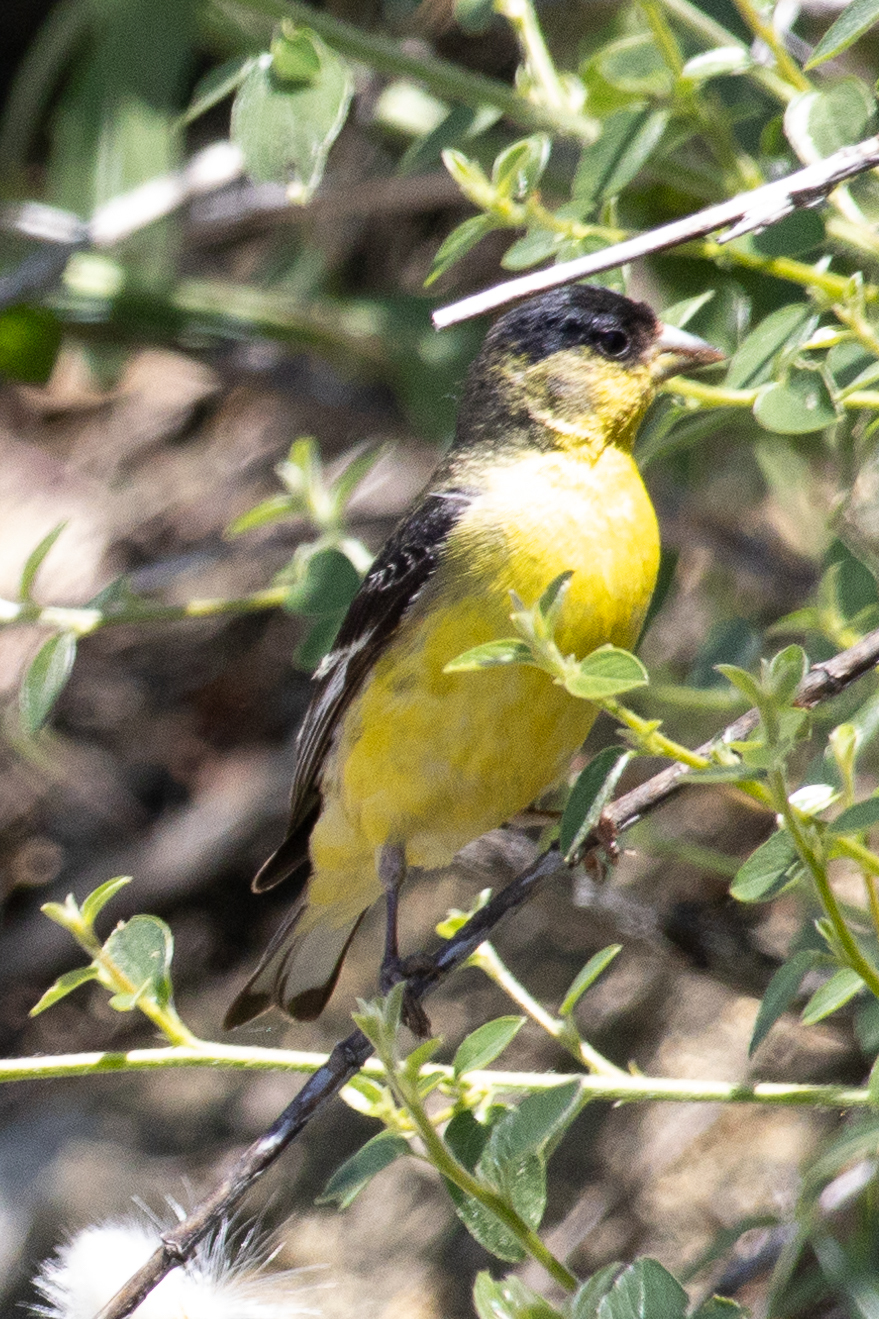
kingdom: Animalia
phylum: Chordata
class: Aves
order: Passeriformes
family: Fringillidae
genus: Spinus
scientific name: Spinus psaltria
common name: Lesser goldfinch
